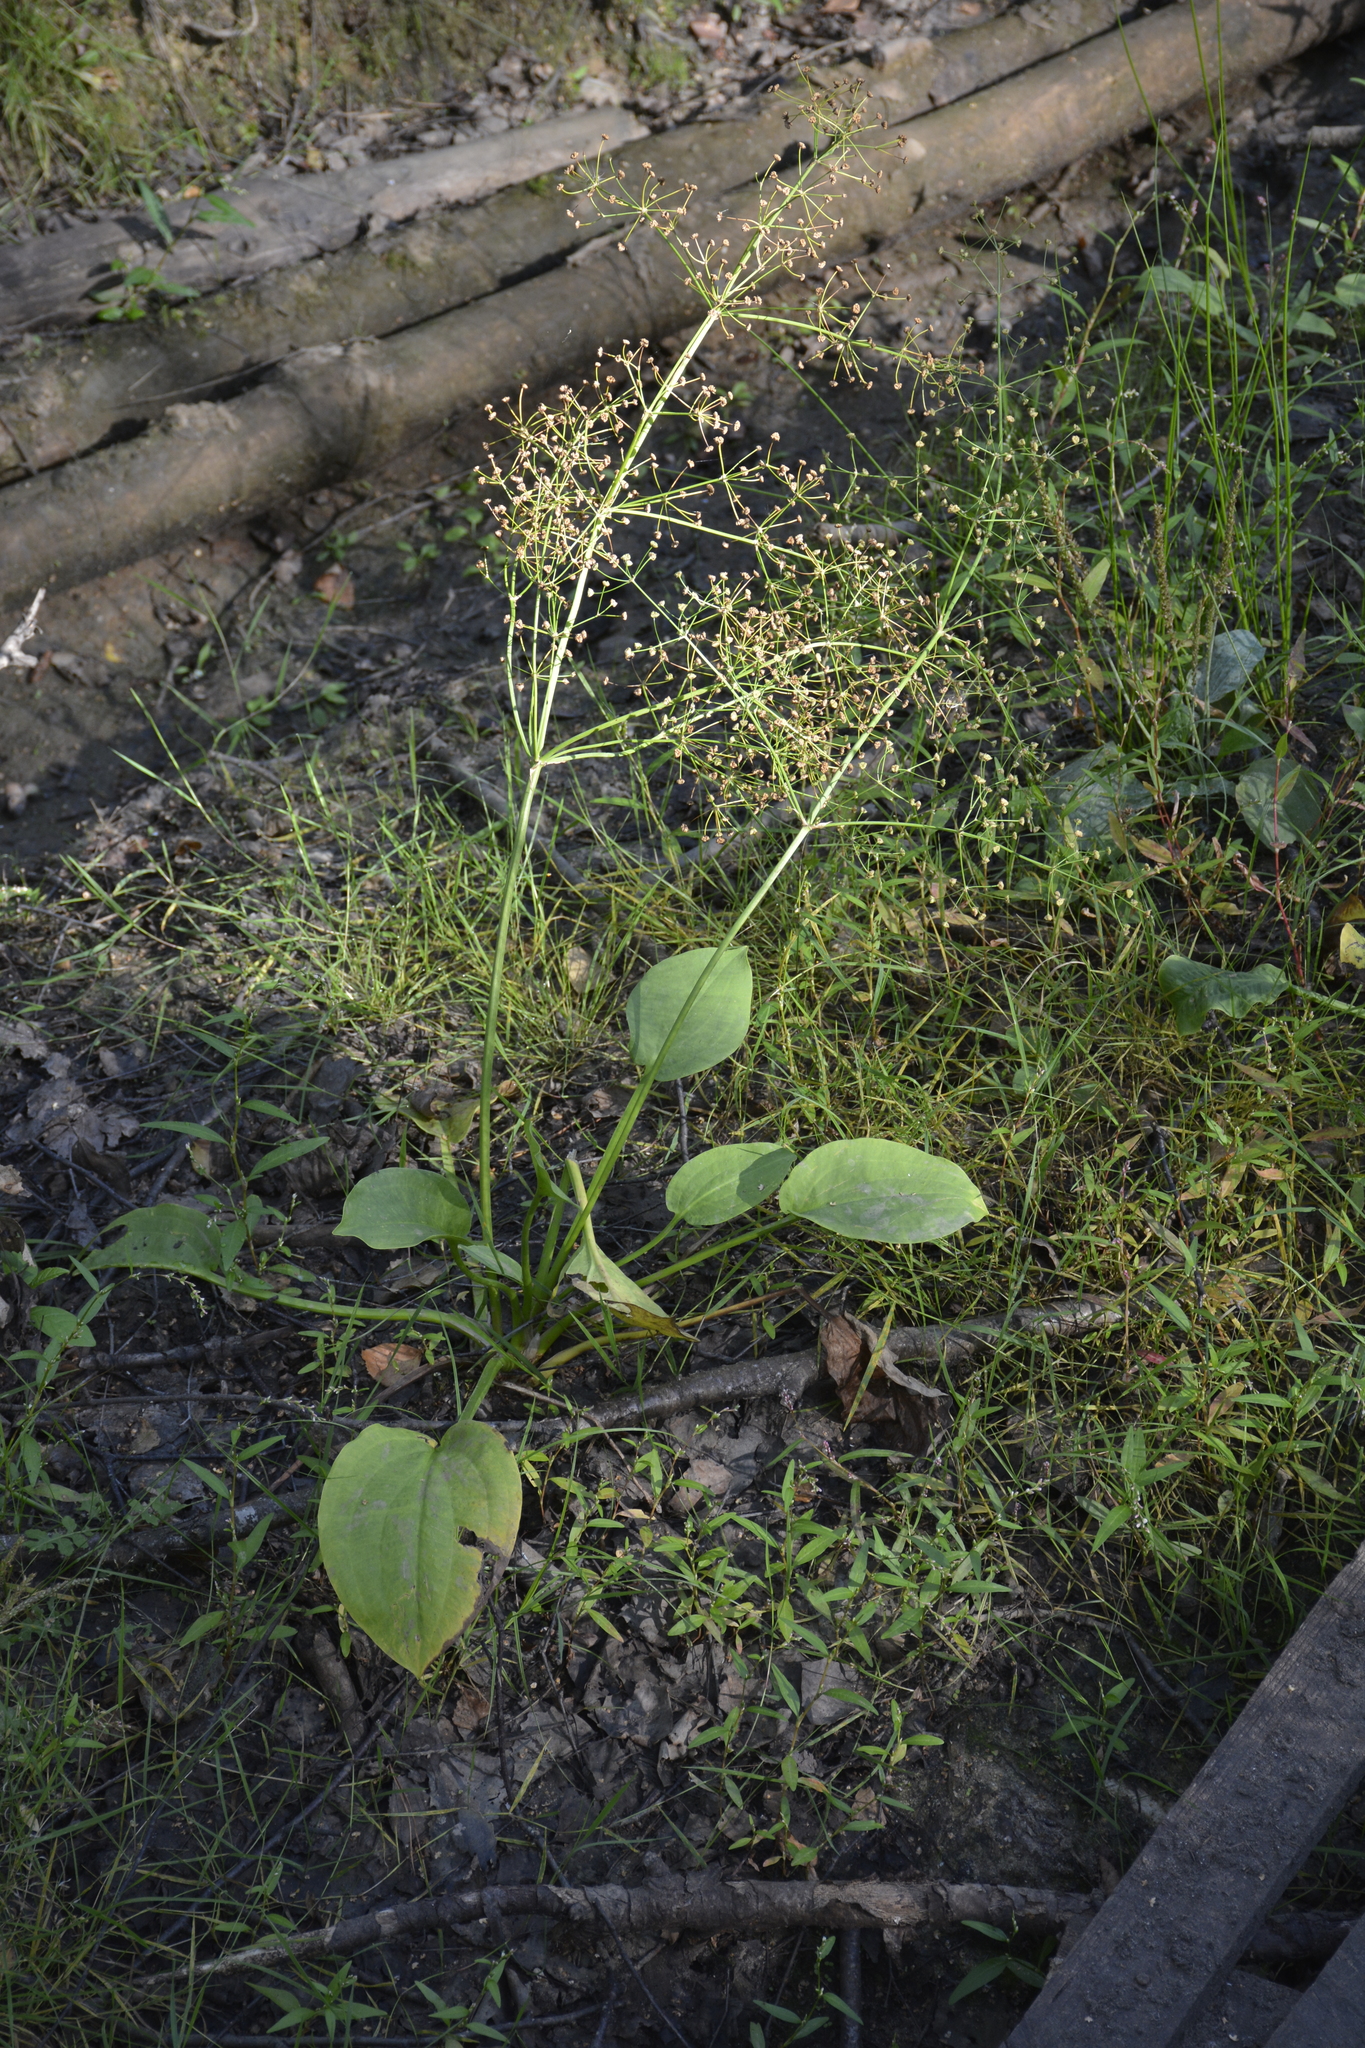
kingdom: Plantae
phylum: Tracheophyta
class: Liliopsida
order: Alismatales
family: Alismataceae
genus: Alisma
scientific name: Alisma plantago-aquatica
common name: Water-plantain
